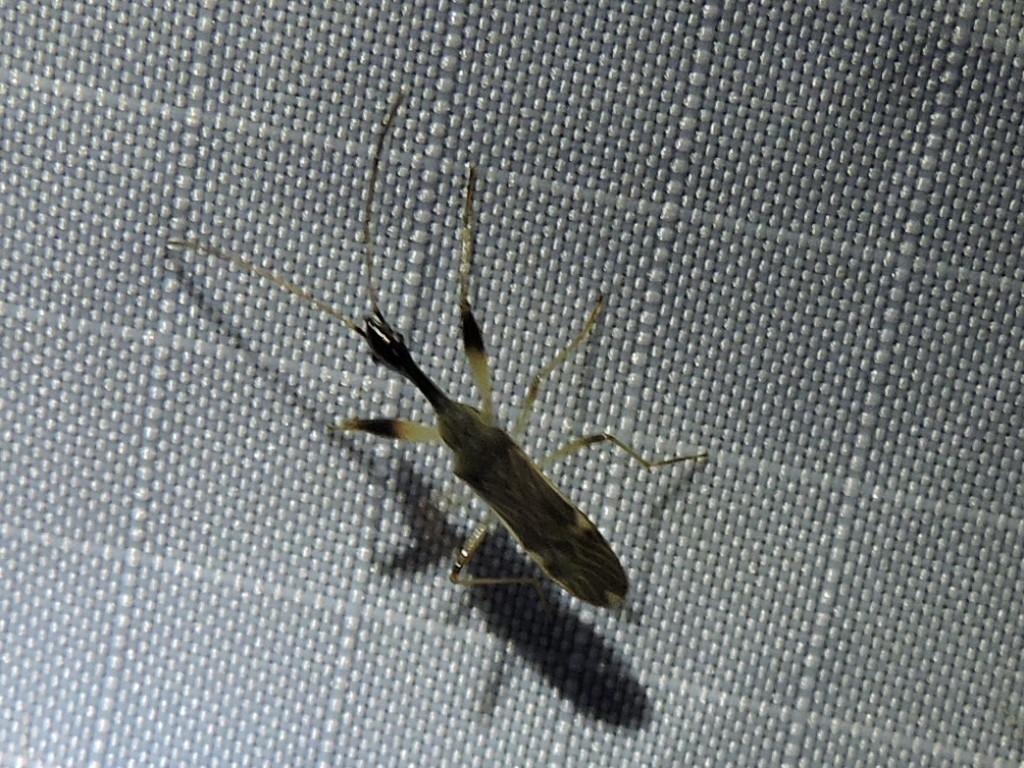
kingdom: Animalia
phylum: Arthropoda
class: Insecta
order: Hemiptera
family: Rhyparochromidae
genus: Myodocha
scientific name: Myodocha serripes
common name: Long-necked seed bug
